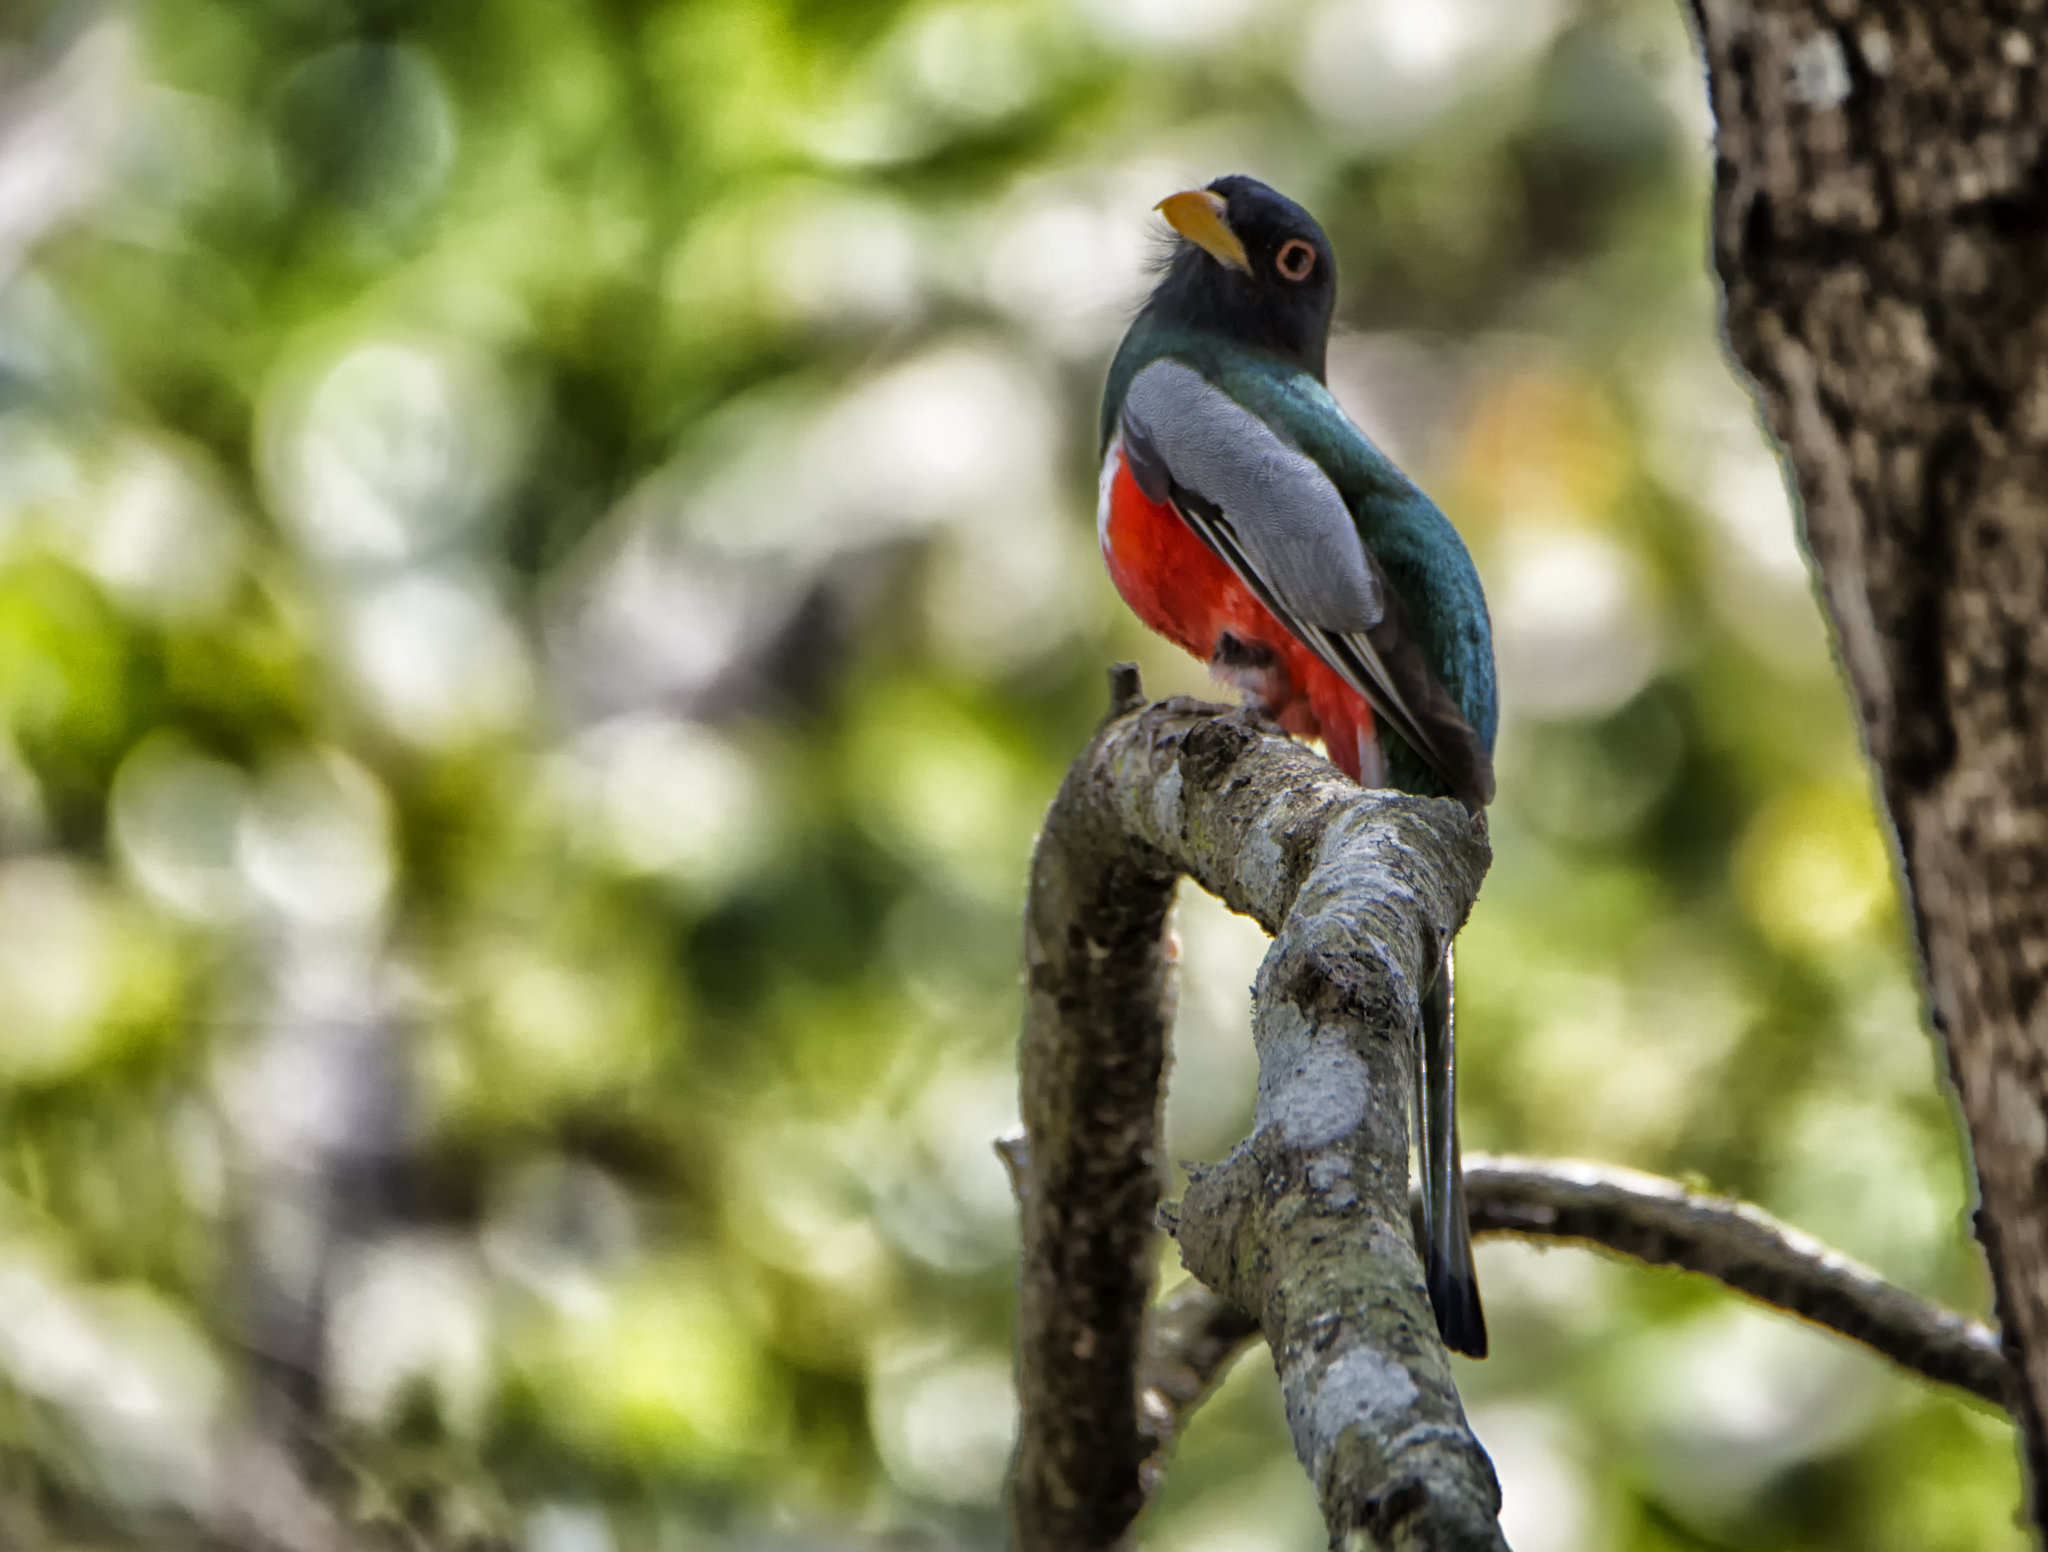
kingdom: Animalia
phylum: Chordata
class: Aves
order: Trogoniformes
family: Trogonidae
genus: Trogon
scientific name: Trogon elegans
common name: Elegant trogon
